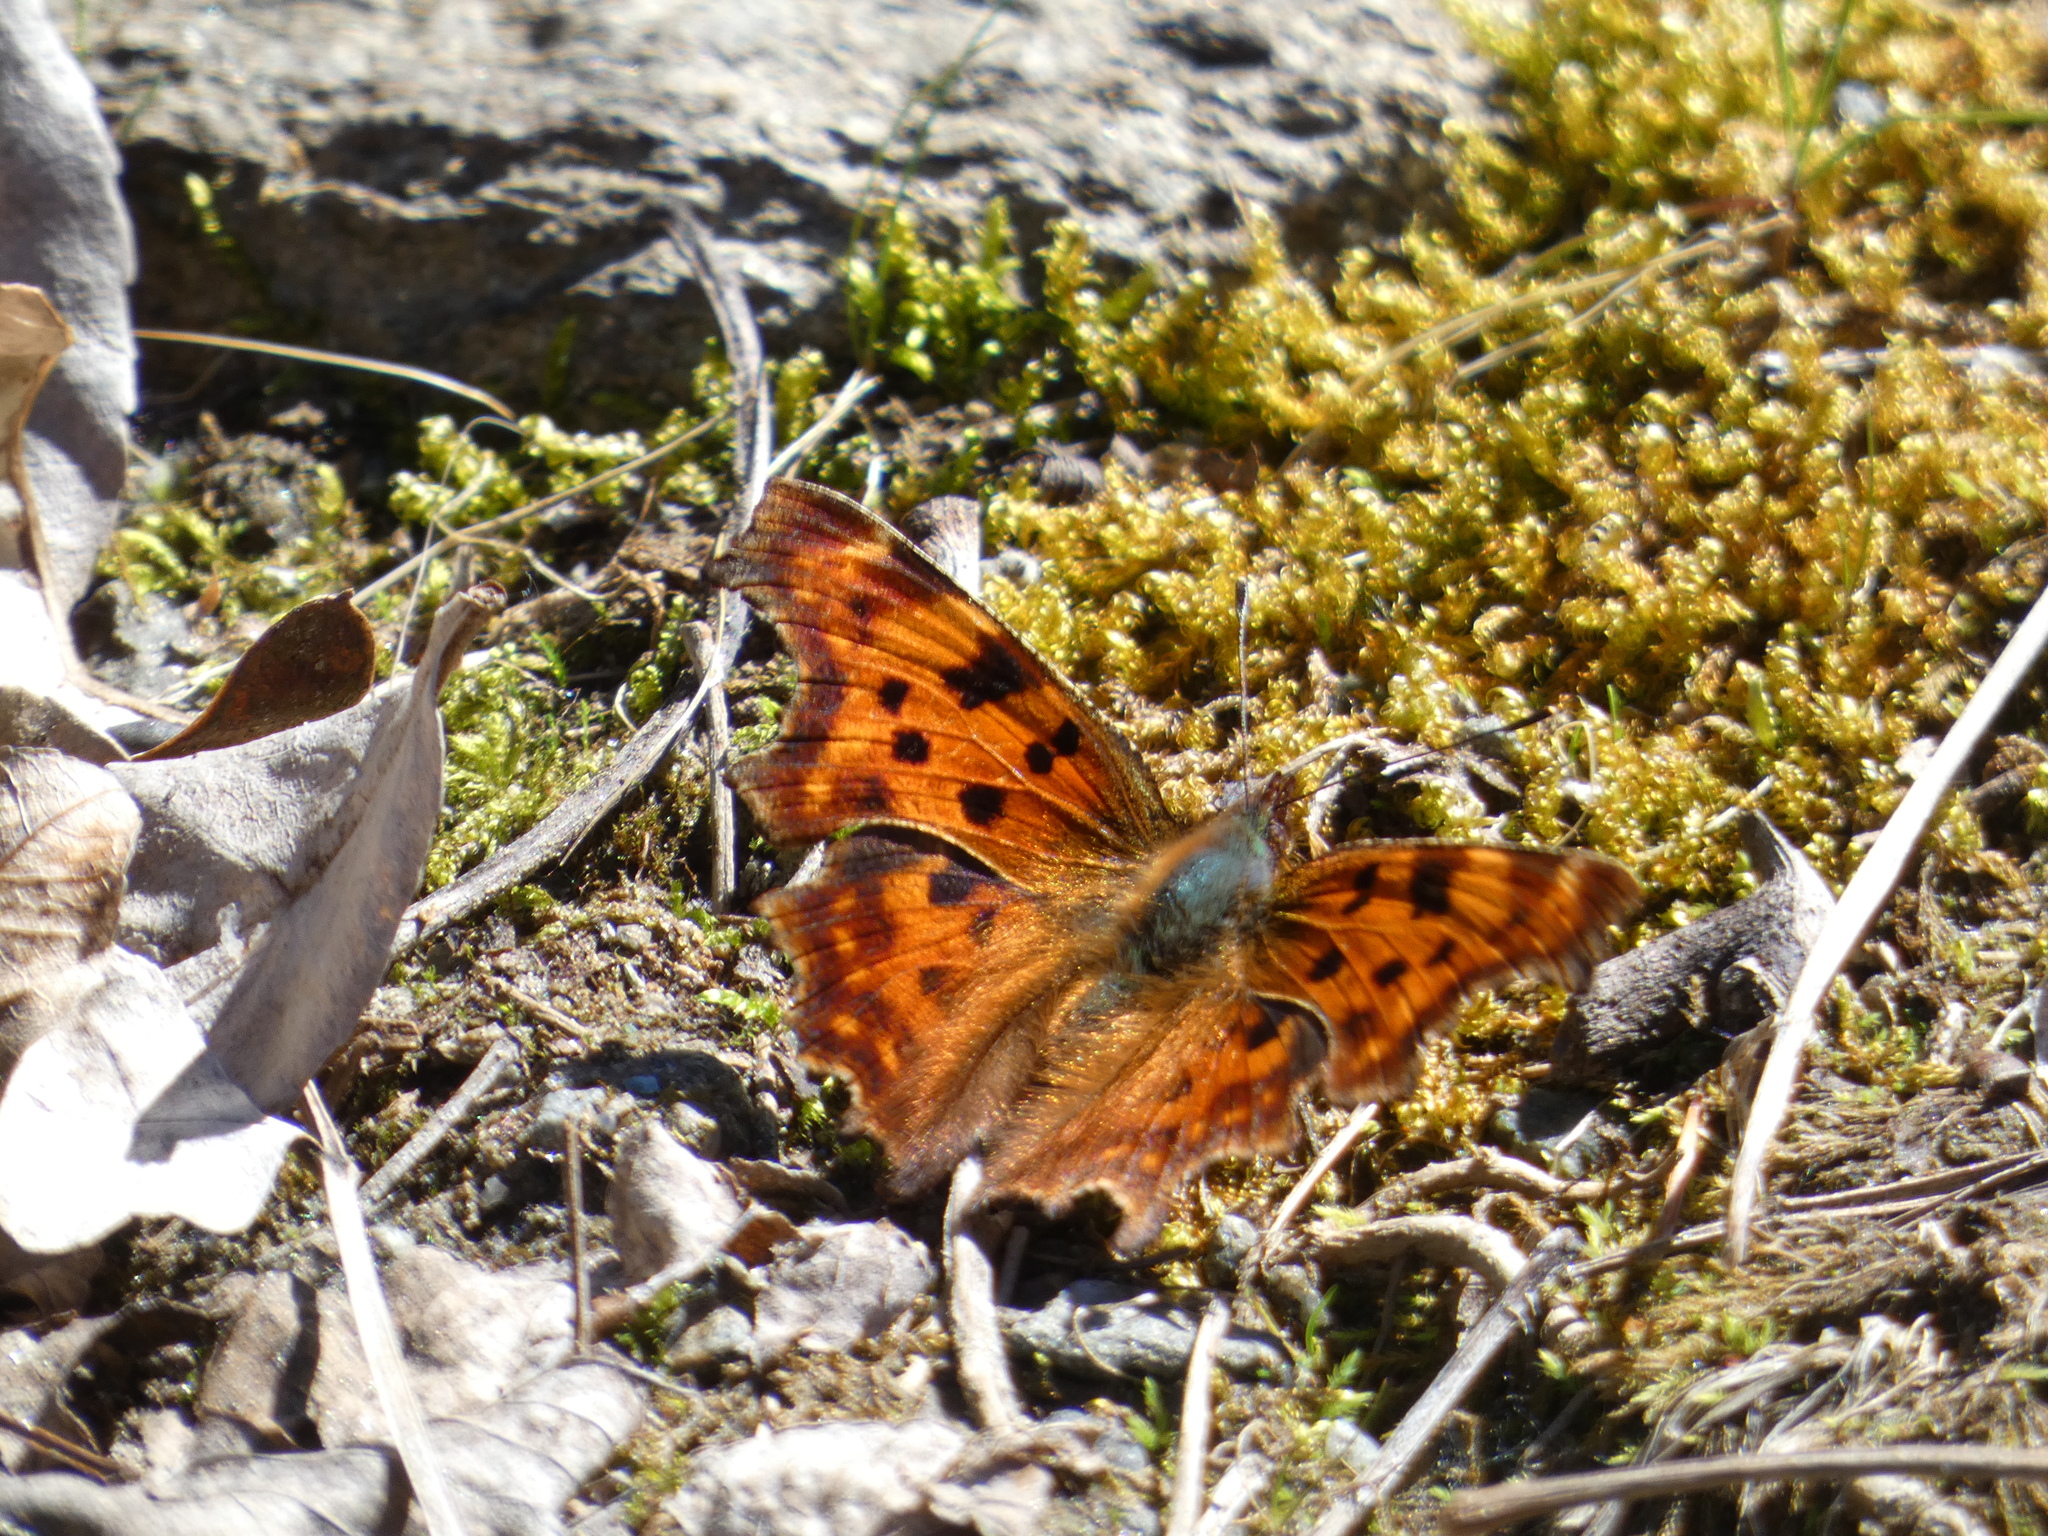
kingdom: Animalia
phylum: Arthropoda
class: Insecta
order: Lepidoptera
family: Nymphalidae
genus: Polygonia
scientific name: Polygonia c-album
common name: Comma
